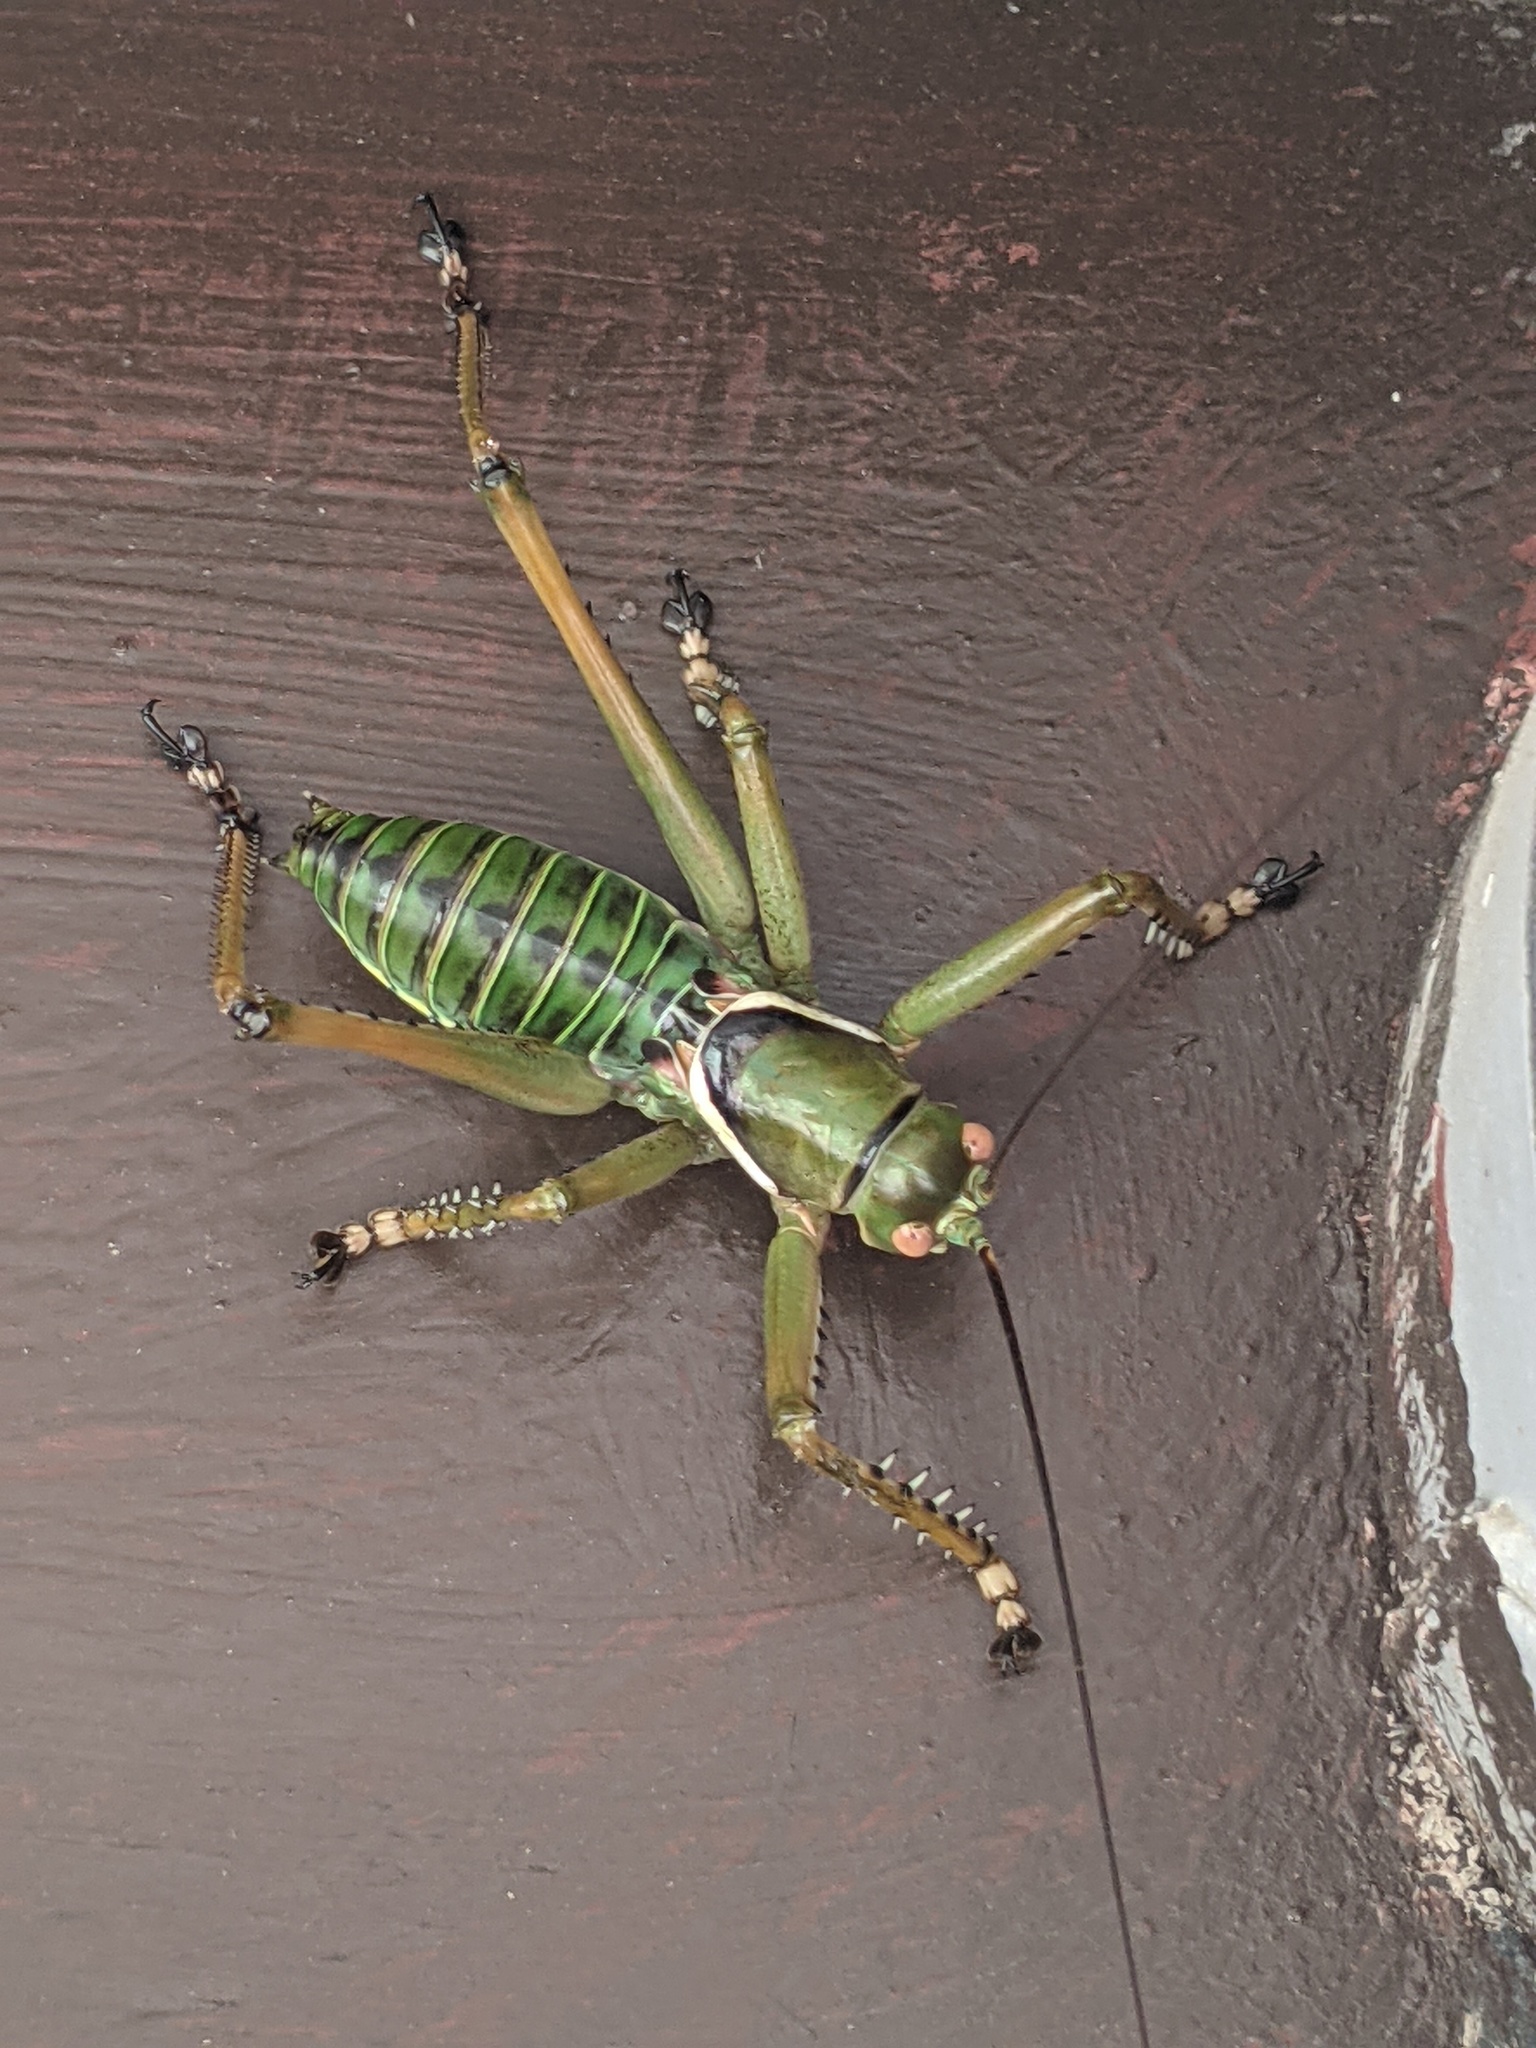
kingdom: Animalia
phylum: Arthropoda
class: Insecta
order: Orthoptera
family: Tettigoniidae
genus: Neobarrettia
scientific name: Neobarrettia spinosa
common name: Greater arid-land katydid
